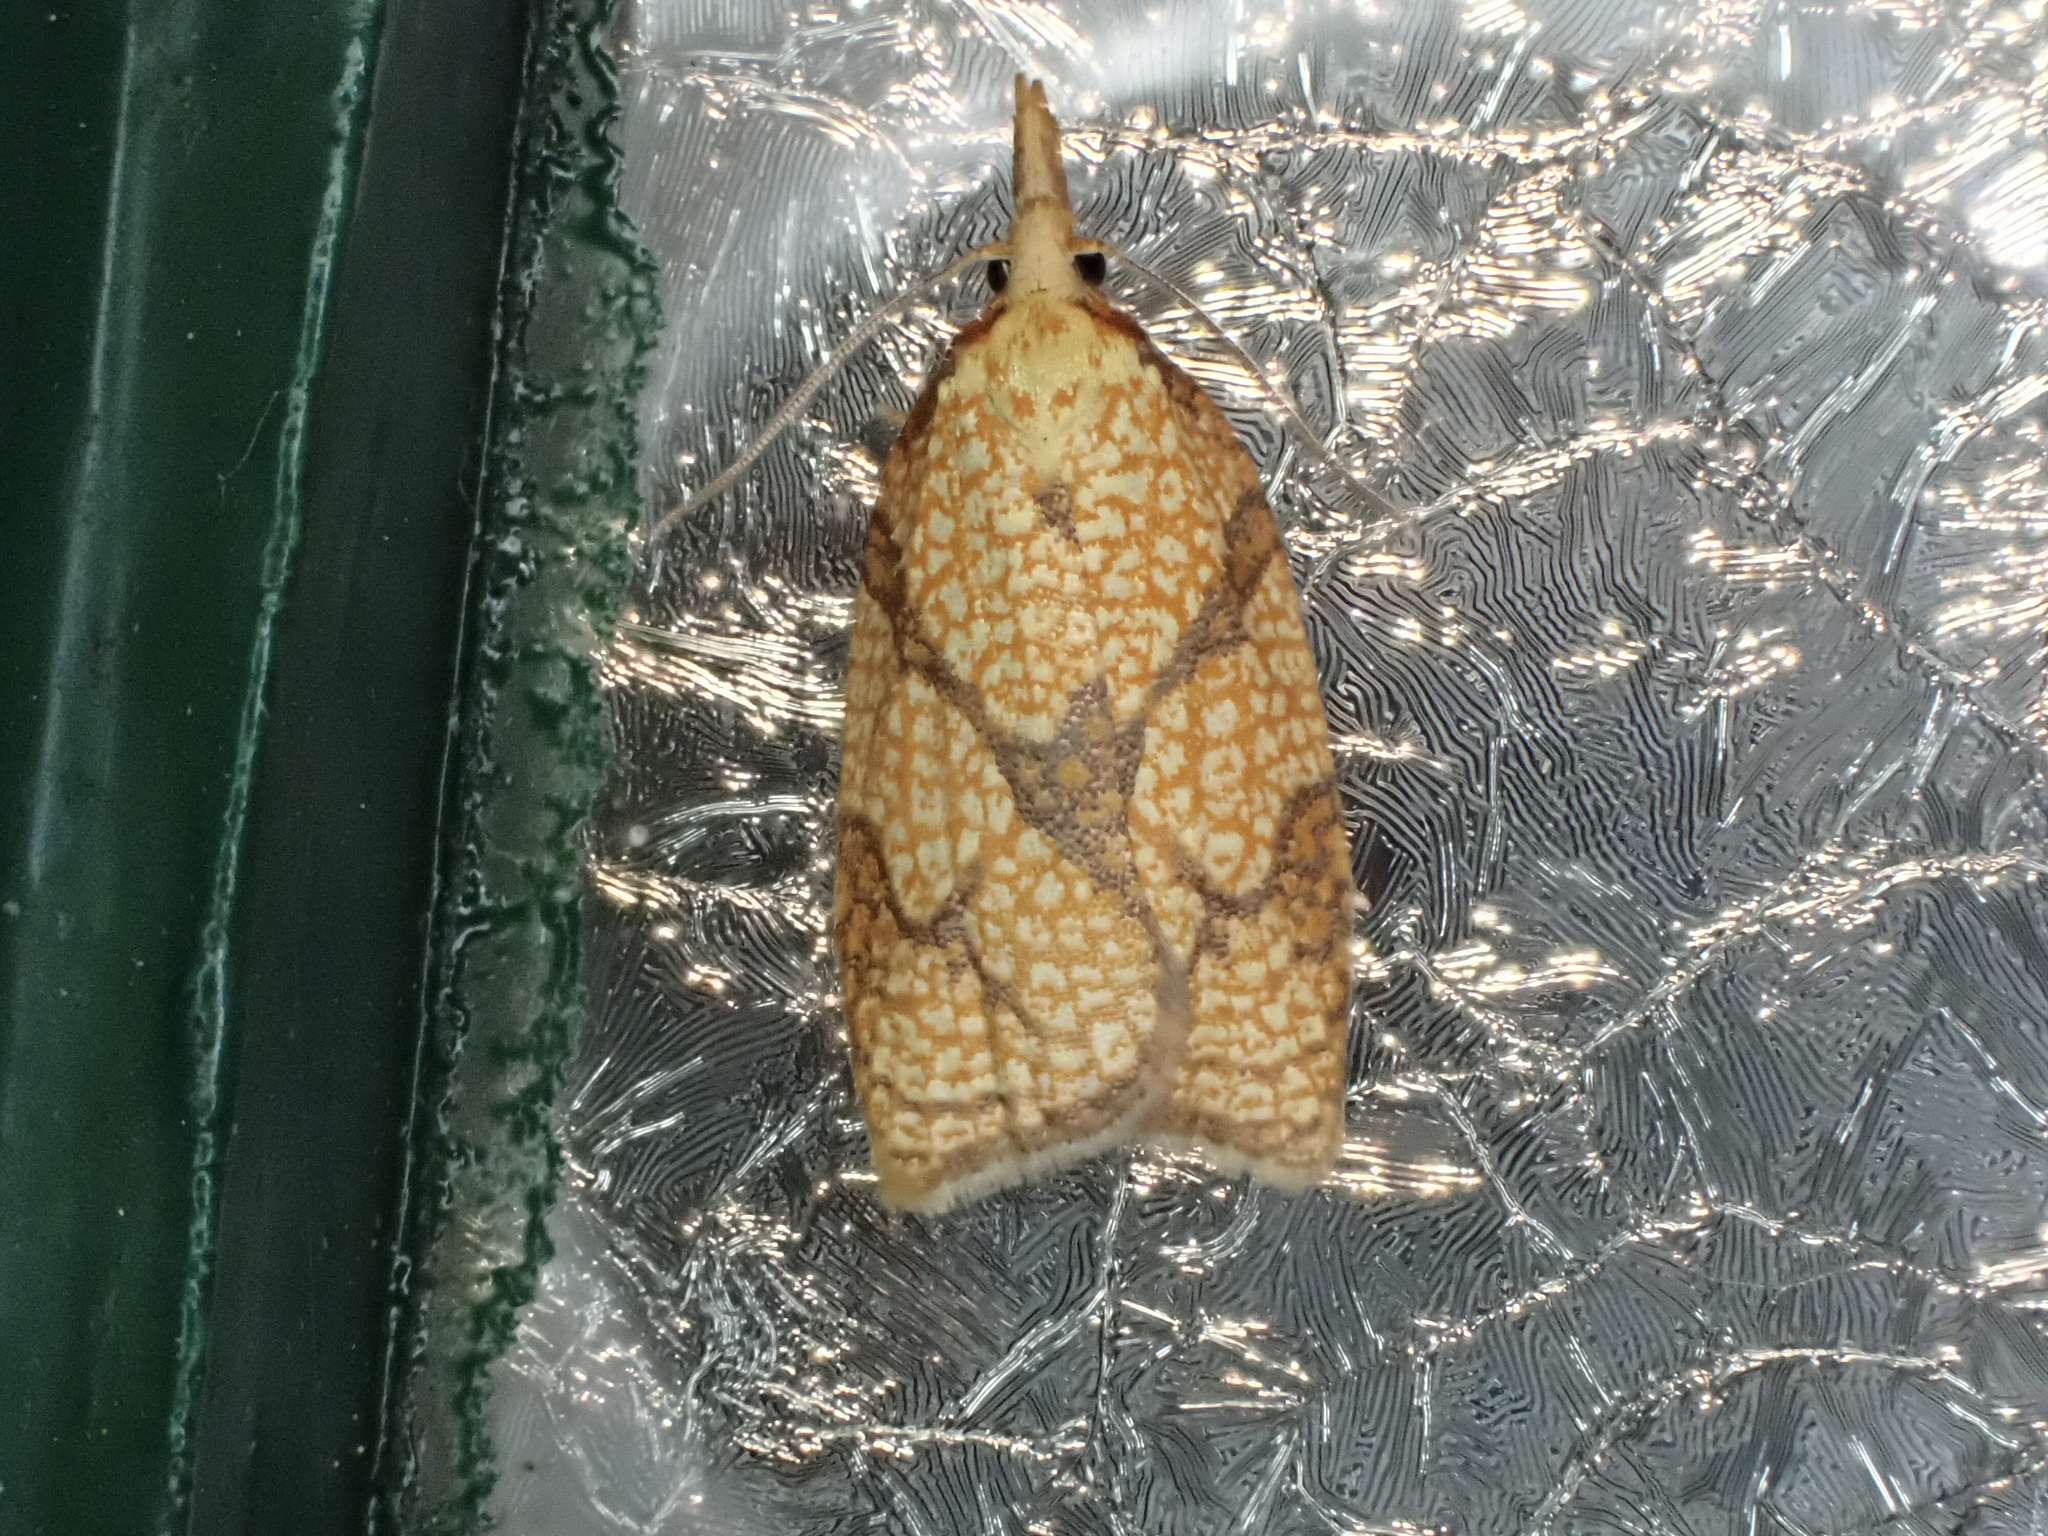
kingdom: Animalia
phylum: Arthropoda
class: Insecta
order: Lepidoptera
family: Tortricidae
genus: Cenopis
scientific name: Cenopis reticulatana
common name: Reticulated fruitworm moth
